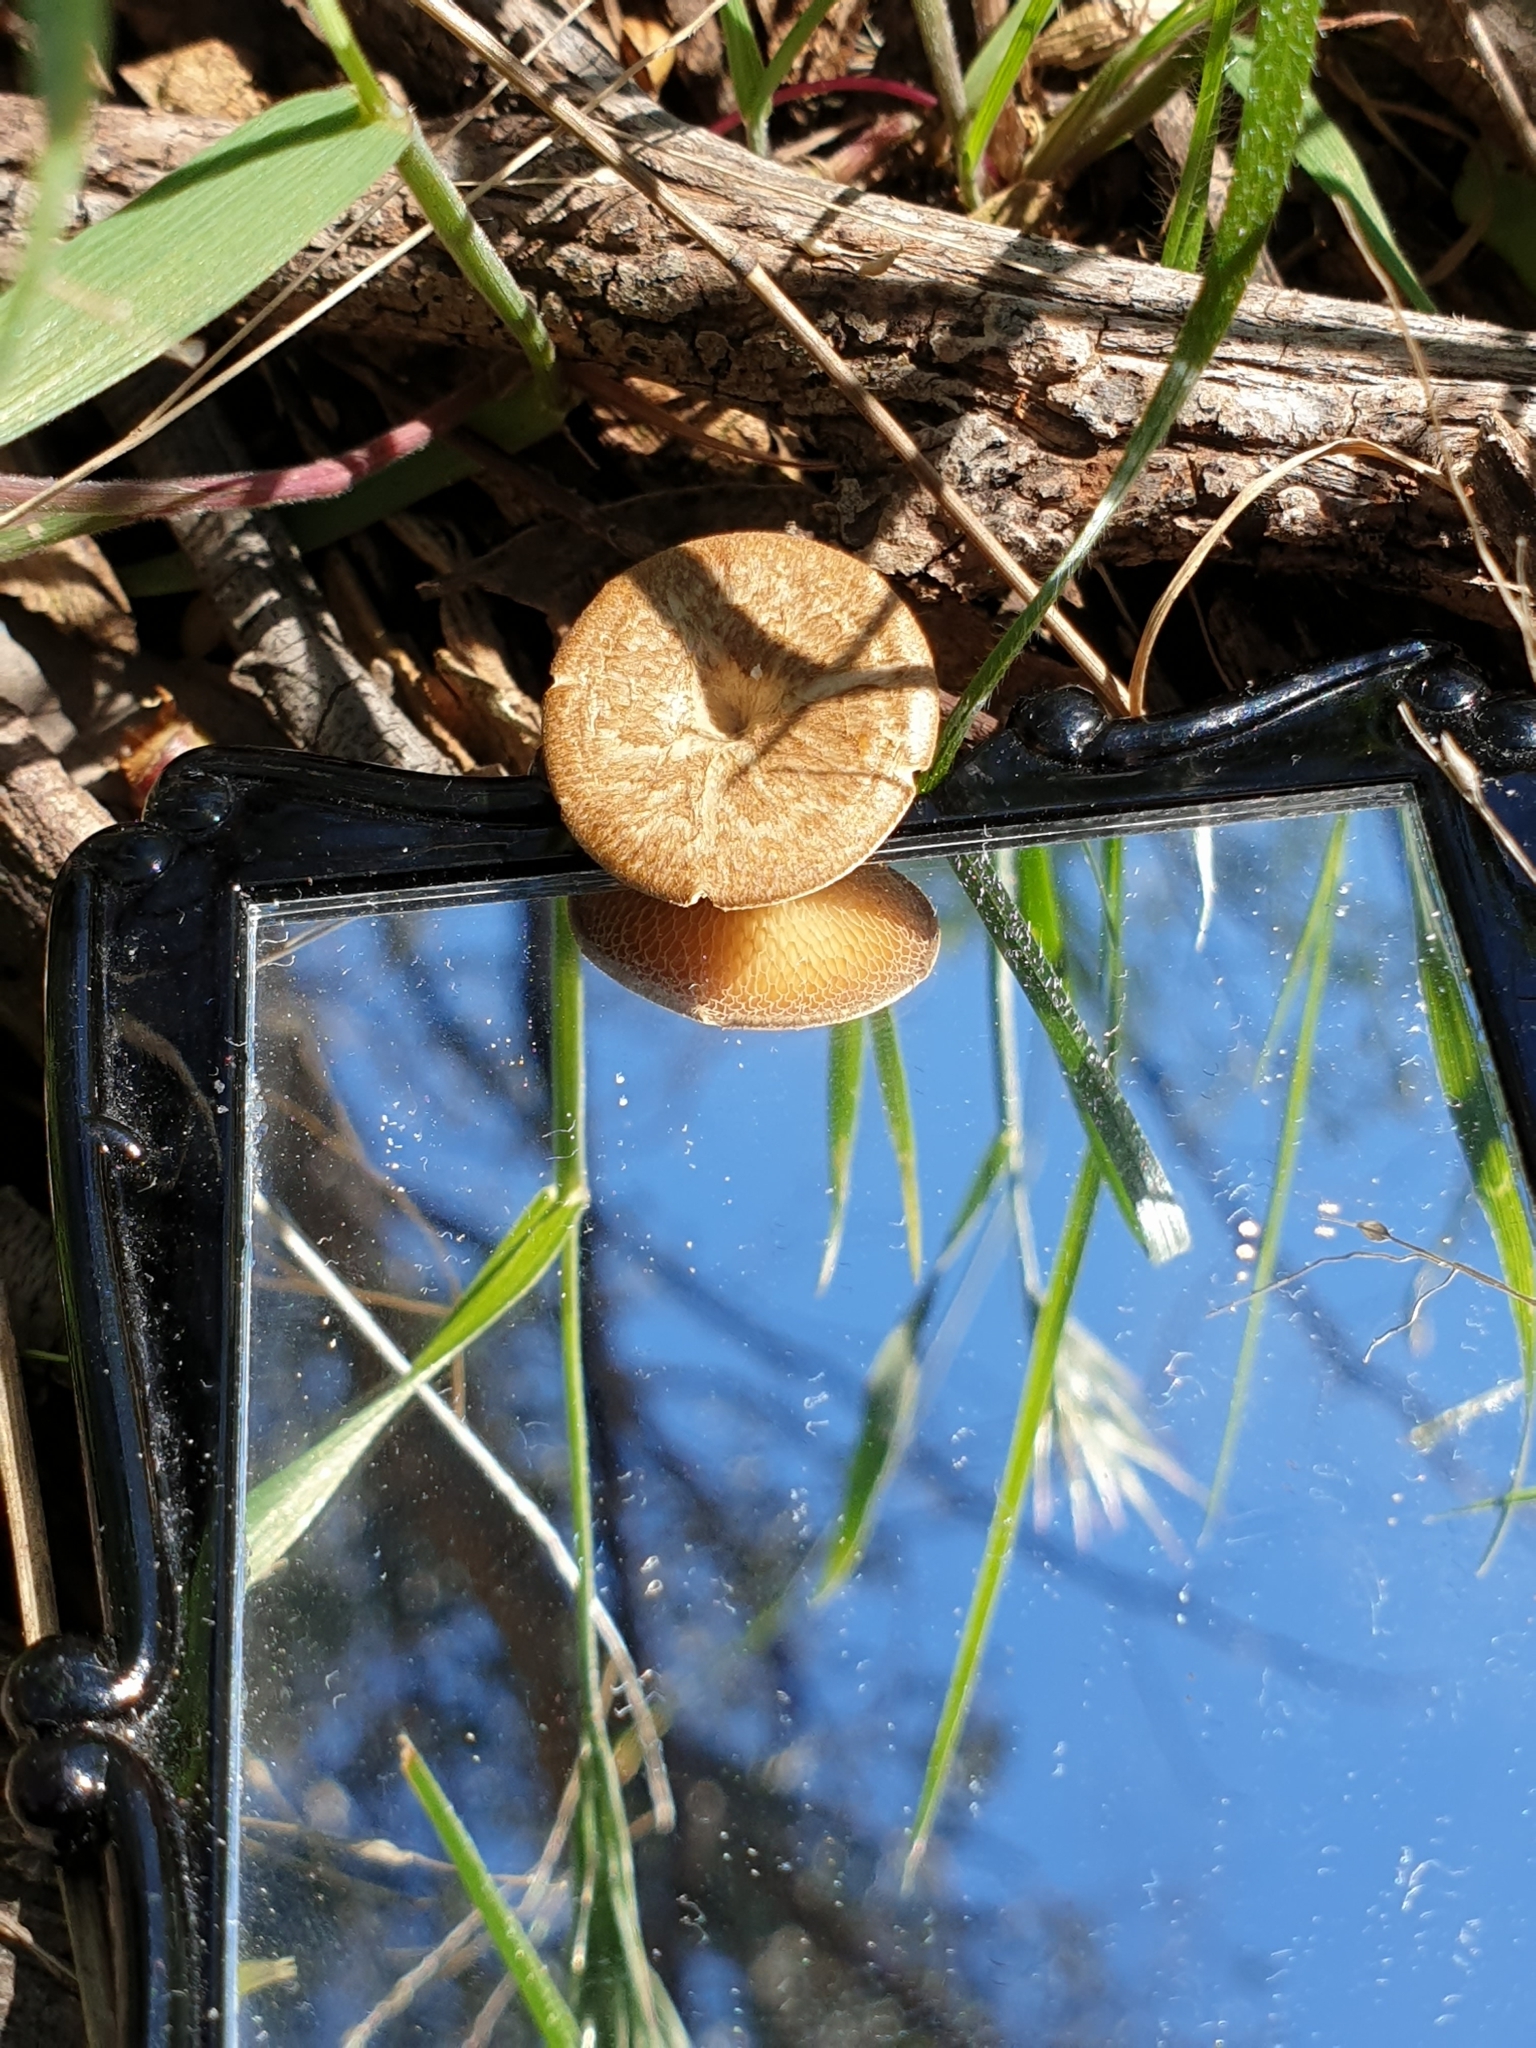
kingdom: Fungi
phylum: Basidiomycota
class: Agaricomycetes
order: Polyporales
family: Polyporaceae
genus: Lentinus
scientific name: Lentinus arcularius
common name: Spring polypore
